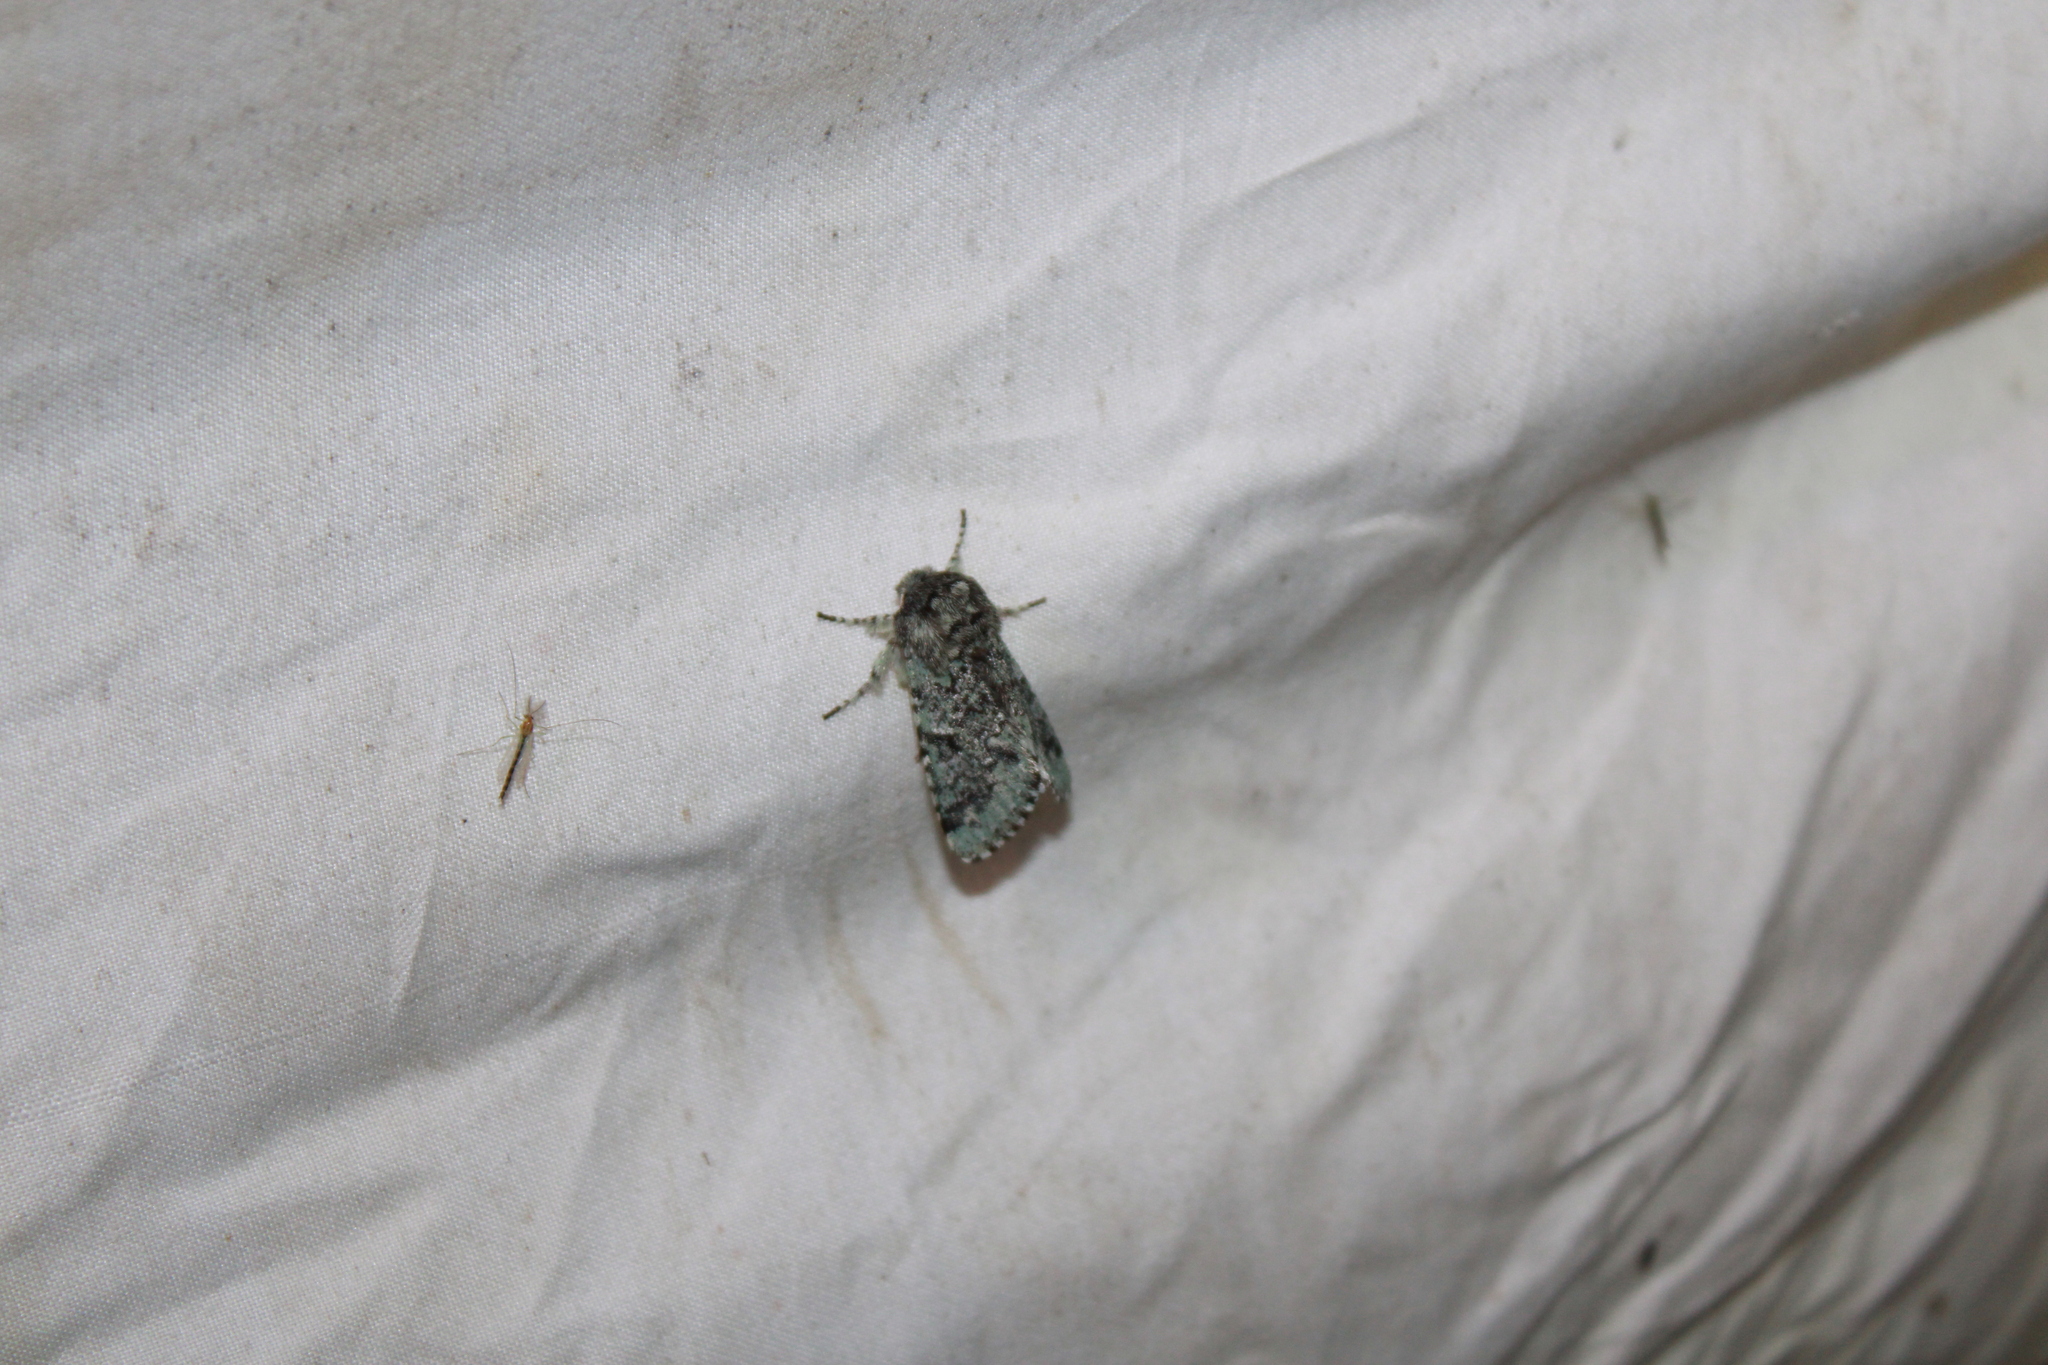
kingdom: Animalia
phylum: Arthropoda
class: Insecta
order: Lepidoptera
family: Noctuidae
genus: Feralia
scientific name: Feralia major
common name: Major sallow
